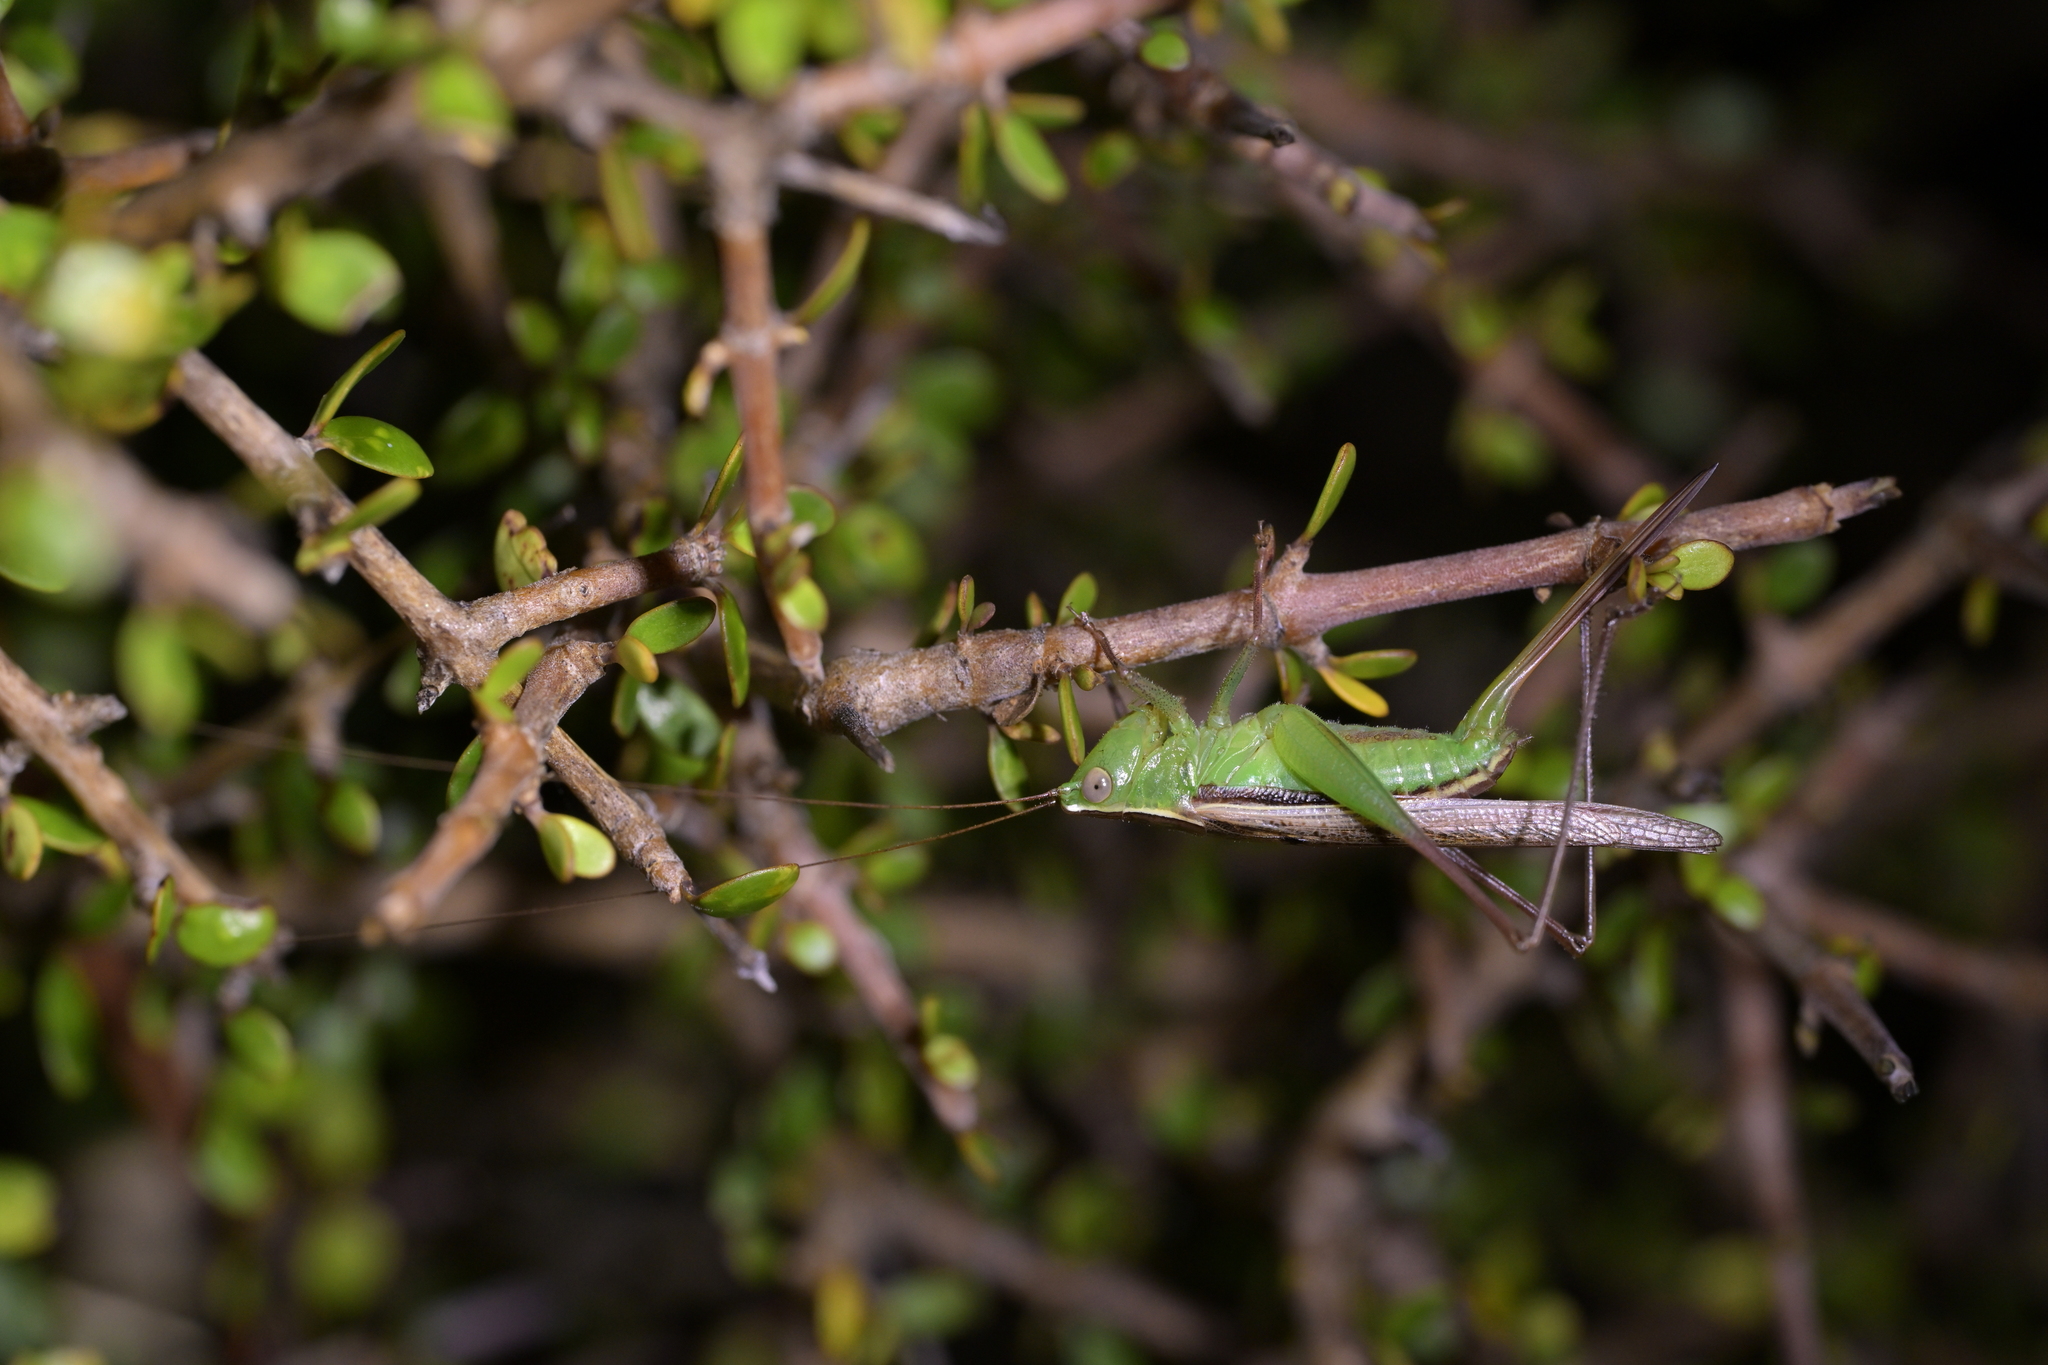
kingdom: Animalia
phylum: Arthropoda
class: Insecta
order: Orthoptera
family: Tettigoniidae
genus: Conocephalus
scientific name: Conocephalus albescens
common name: Whitish meadow katydid
